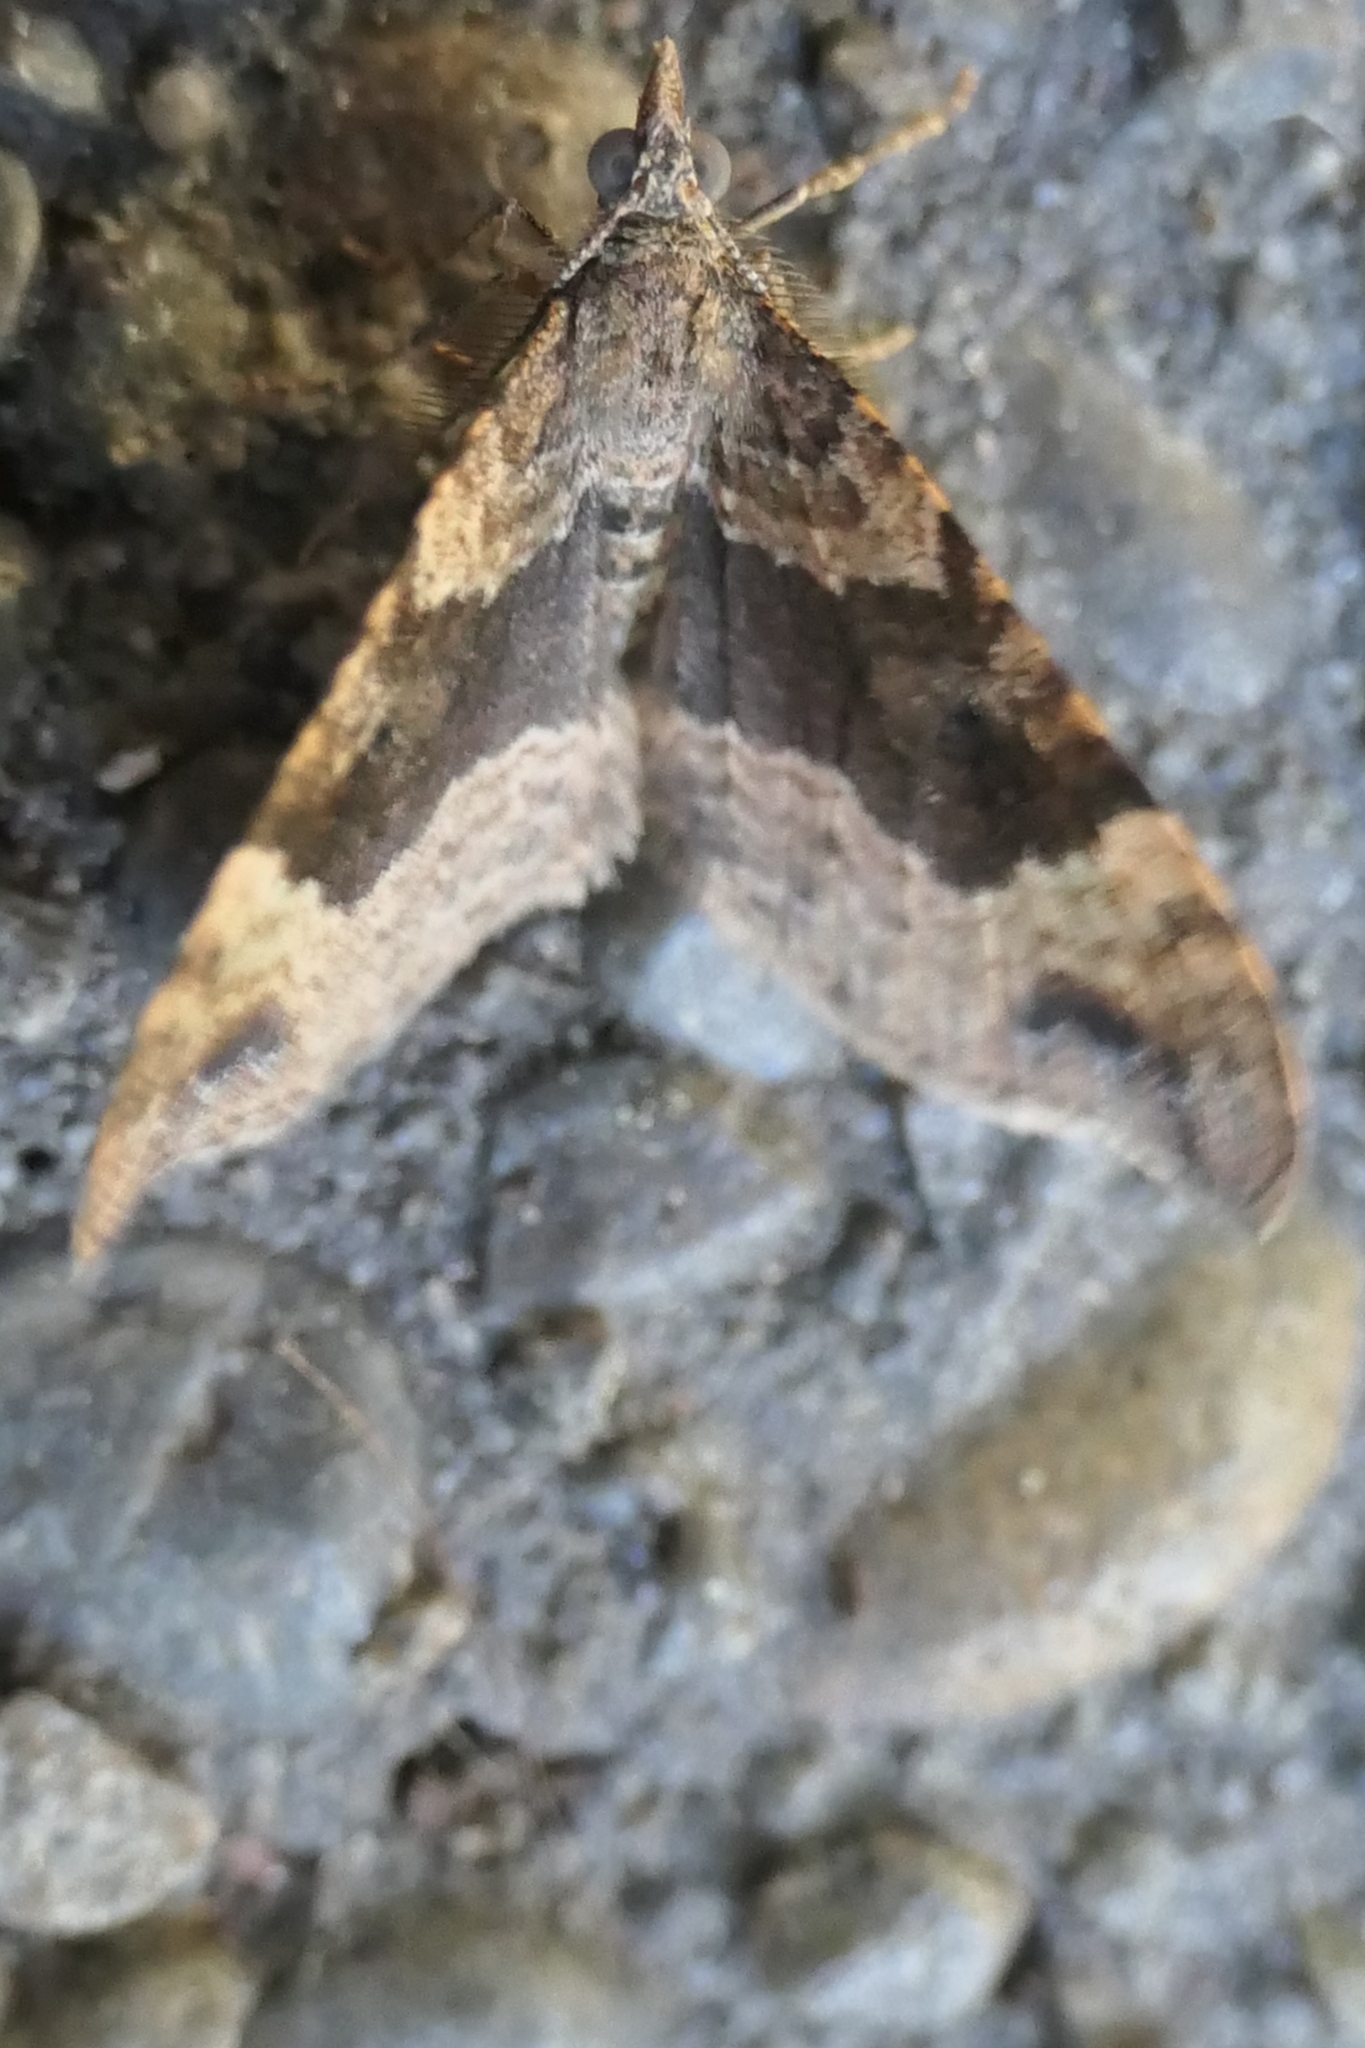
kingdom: Animalia
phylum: Arthropoda
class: Insecta
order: Lepidoptera
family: Geometridae
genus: Homodotis
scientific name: Homodotis megaspilata
